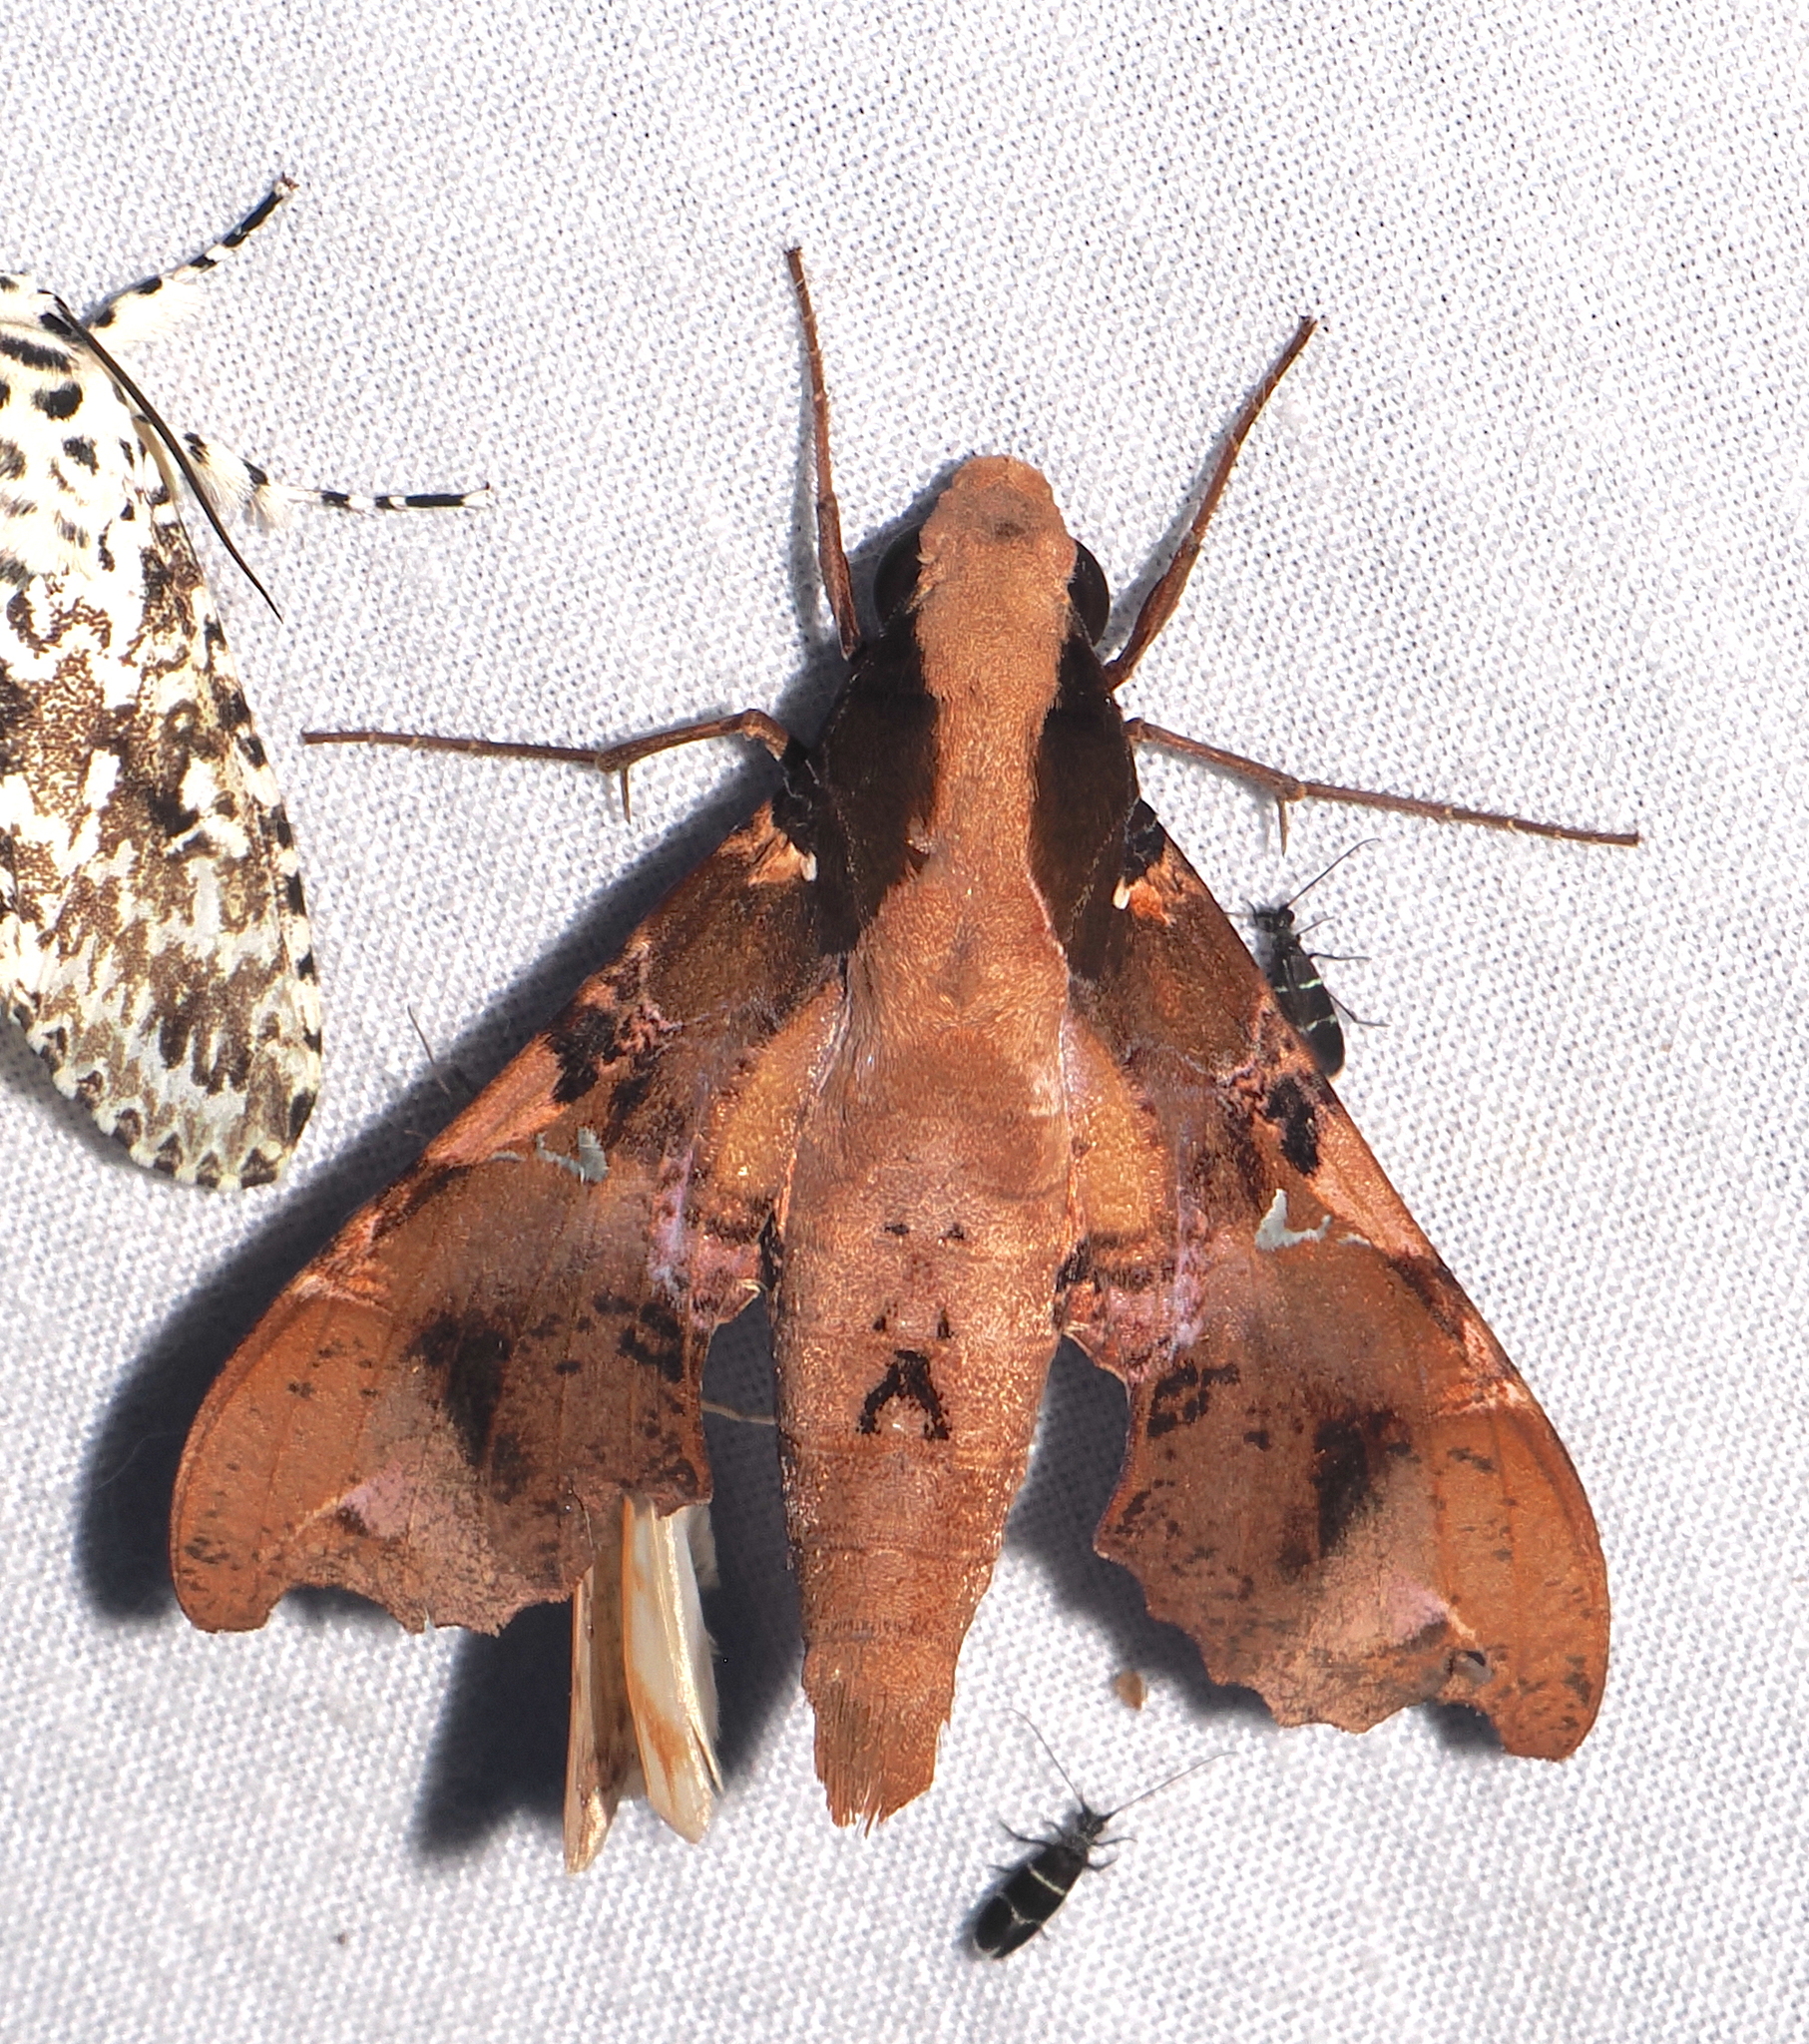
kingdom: Animalia
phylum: Arthropoda
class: Insecta
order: Lepidoptera
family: Sphingidae
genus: Callionima
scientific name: Callionima falcifera
